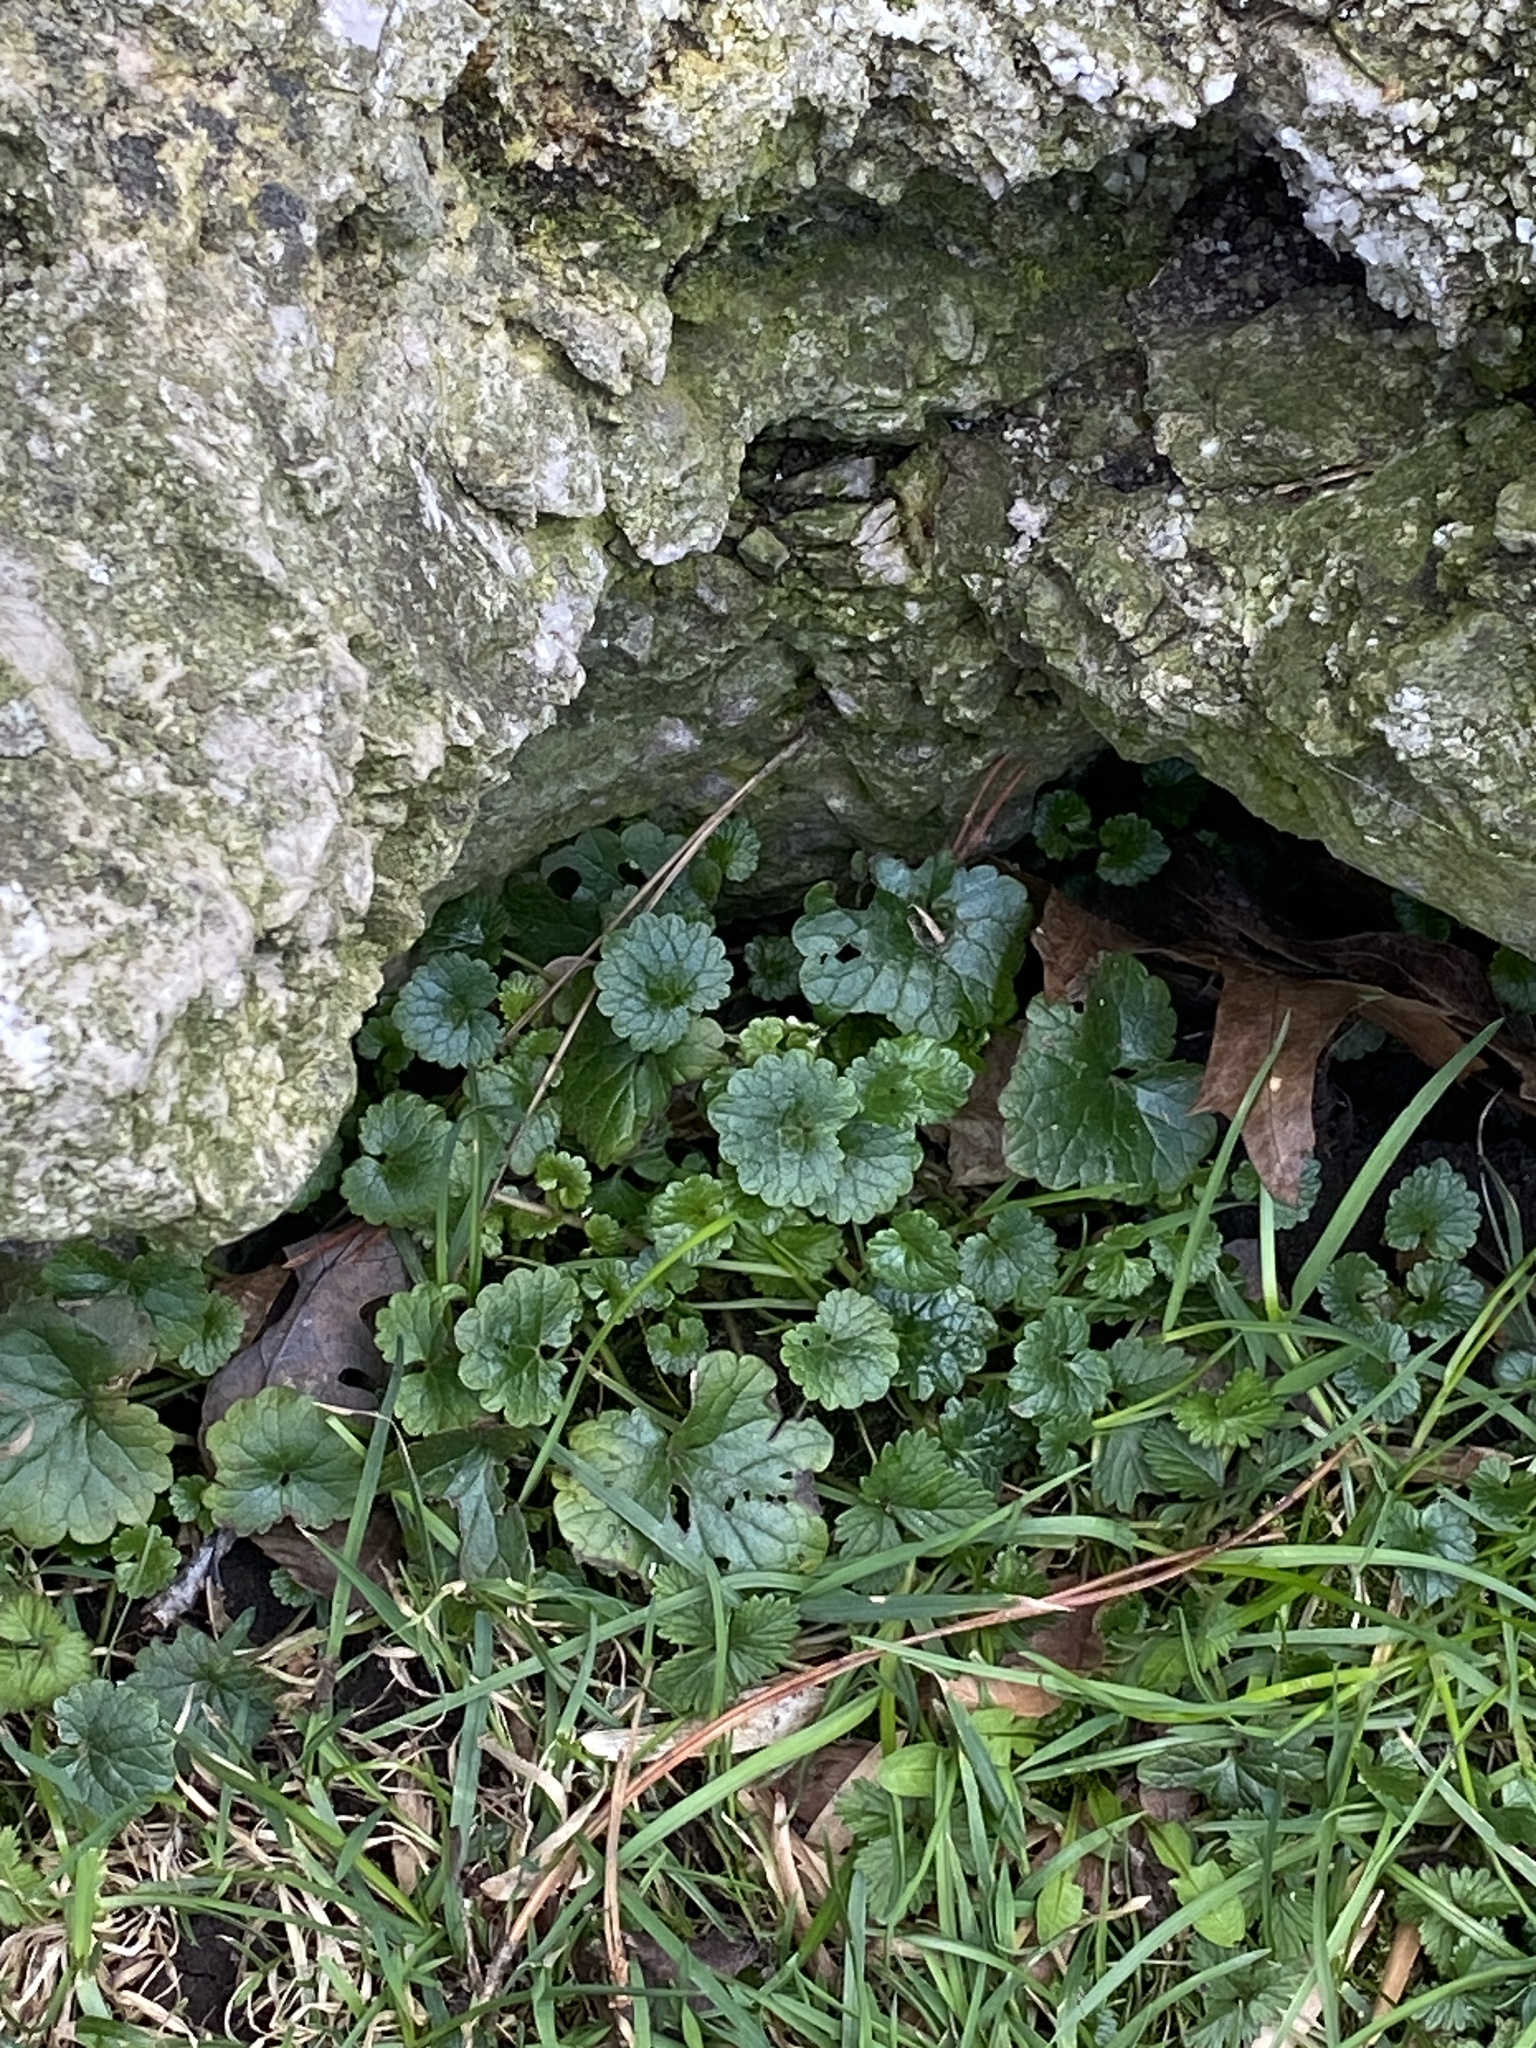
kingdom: Plantae
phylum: Tracheophyta
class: Magnoliopsida
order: Lamiales
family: Lamiaceae
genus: Glechoma
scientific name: Glechoma hederacea
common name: Ground ivy
